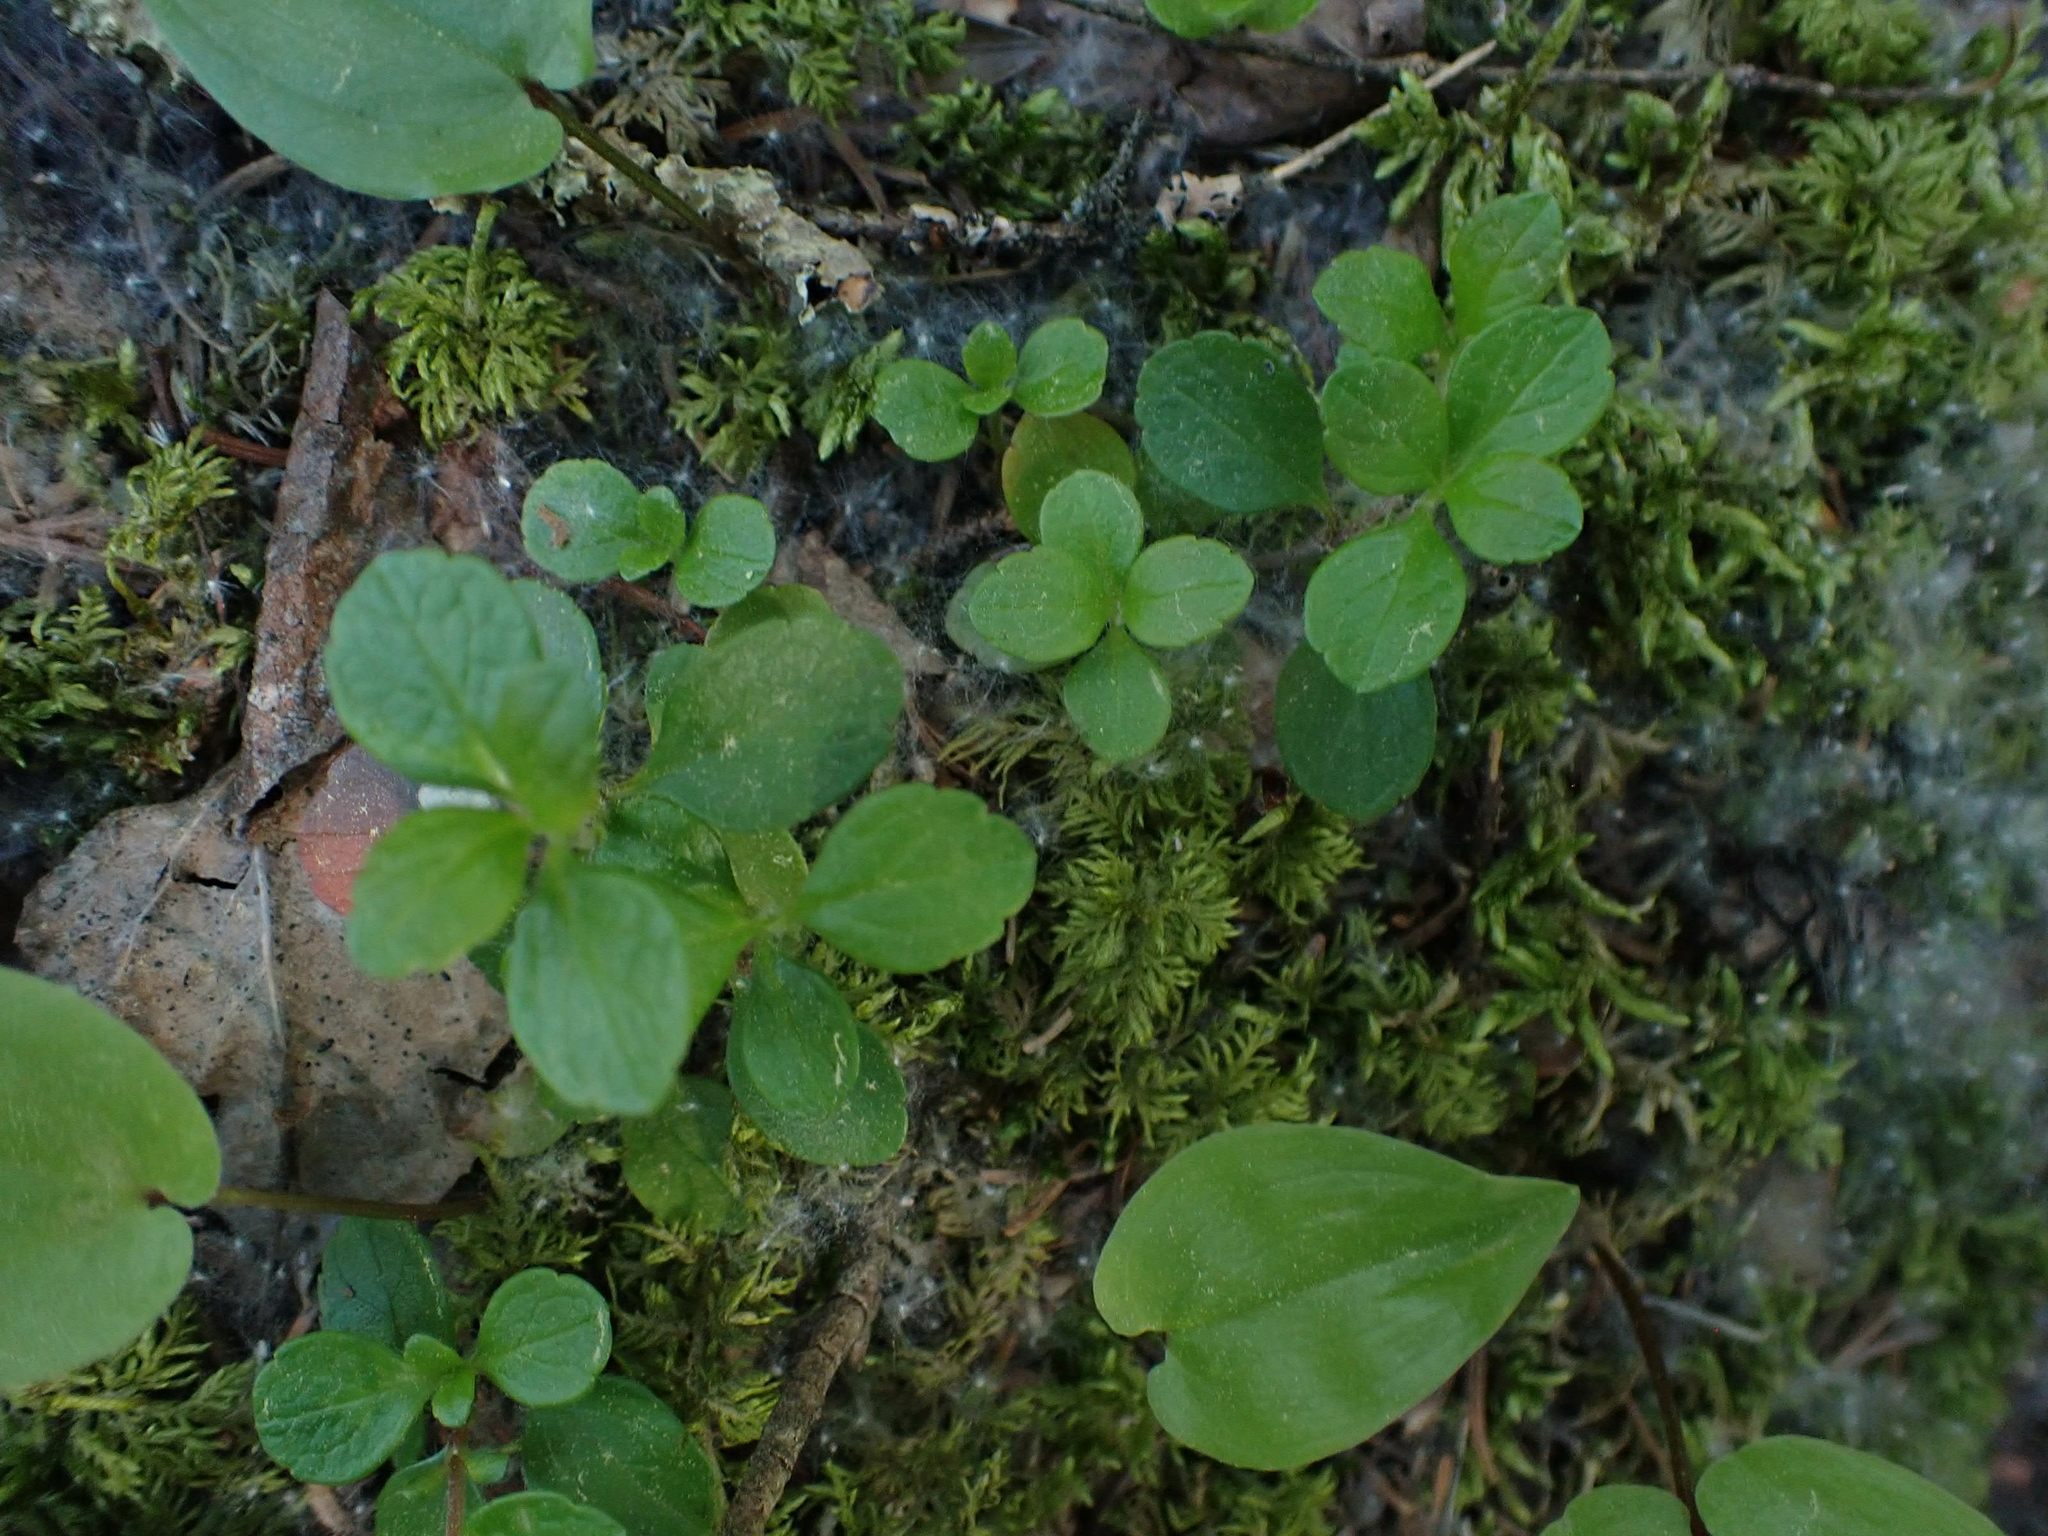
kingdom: Plantae
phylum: Tracheophyta
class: Magnoliopsida
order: Dipsacales
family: Caprifoliaceae
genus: Linnaea
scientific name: Linnaea borealis
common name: Twinflower
